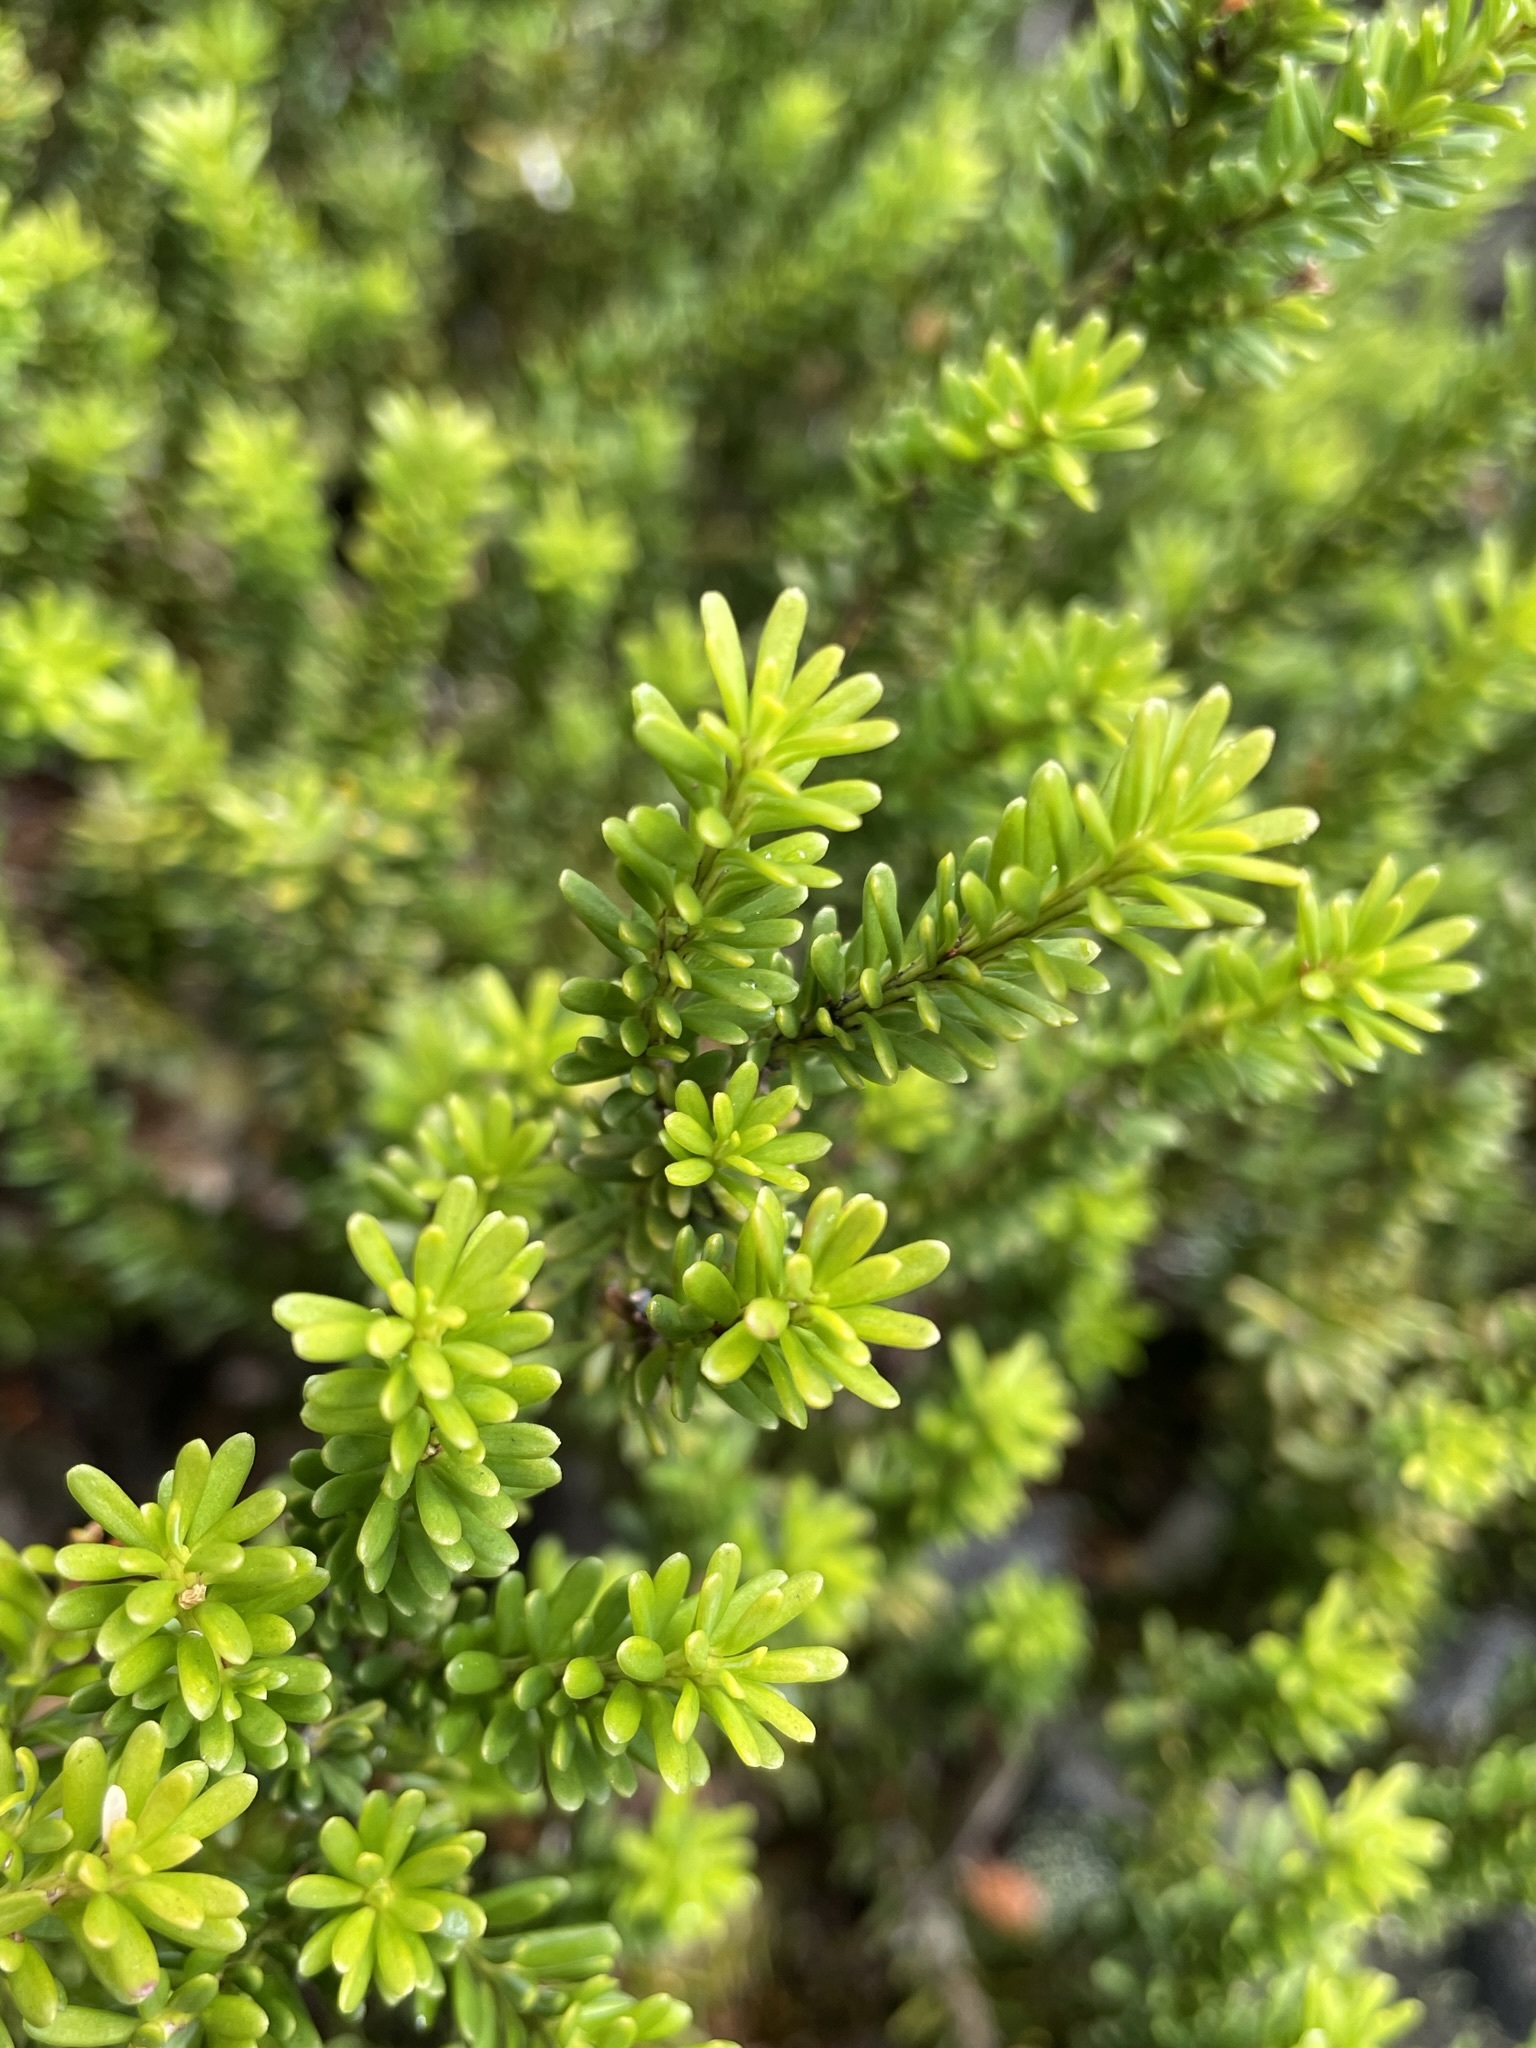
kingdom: Plantae
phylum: Tracheophyta
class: Pinopsida
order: Pinales
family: Podocarpaceae
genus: Podocarpus
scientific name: Podocarpus lawrencei
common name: Mountain plum pine
